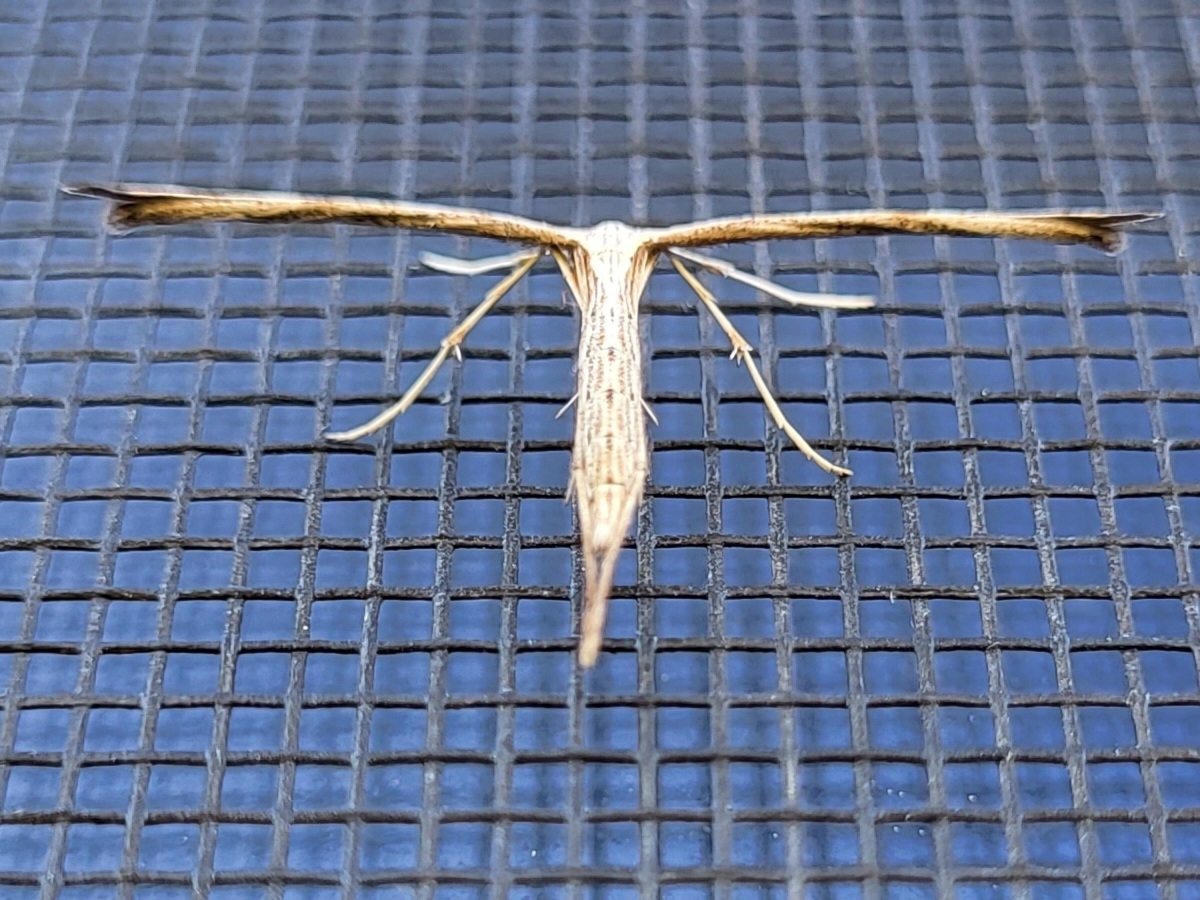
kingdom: Animalia
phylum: Arthropoda
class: Insecta
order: Lepidoptera
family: Pterophoridae
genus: Emmelina
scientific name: Emmelina monodactyla
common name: Common plume
